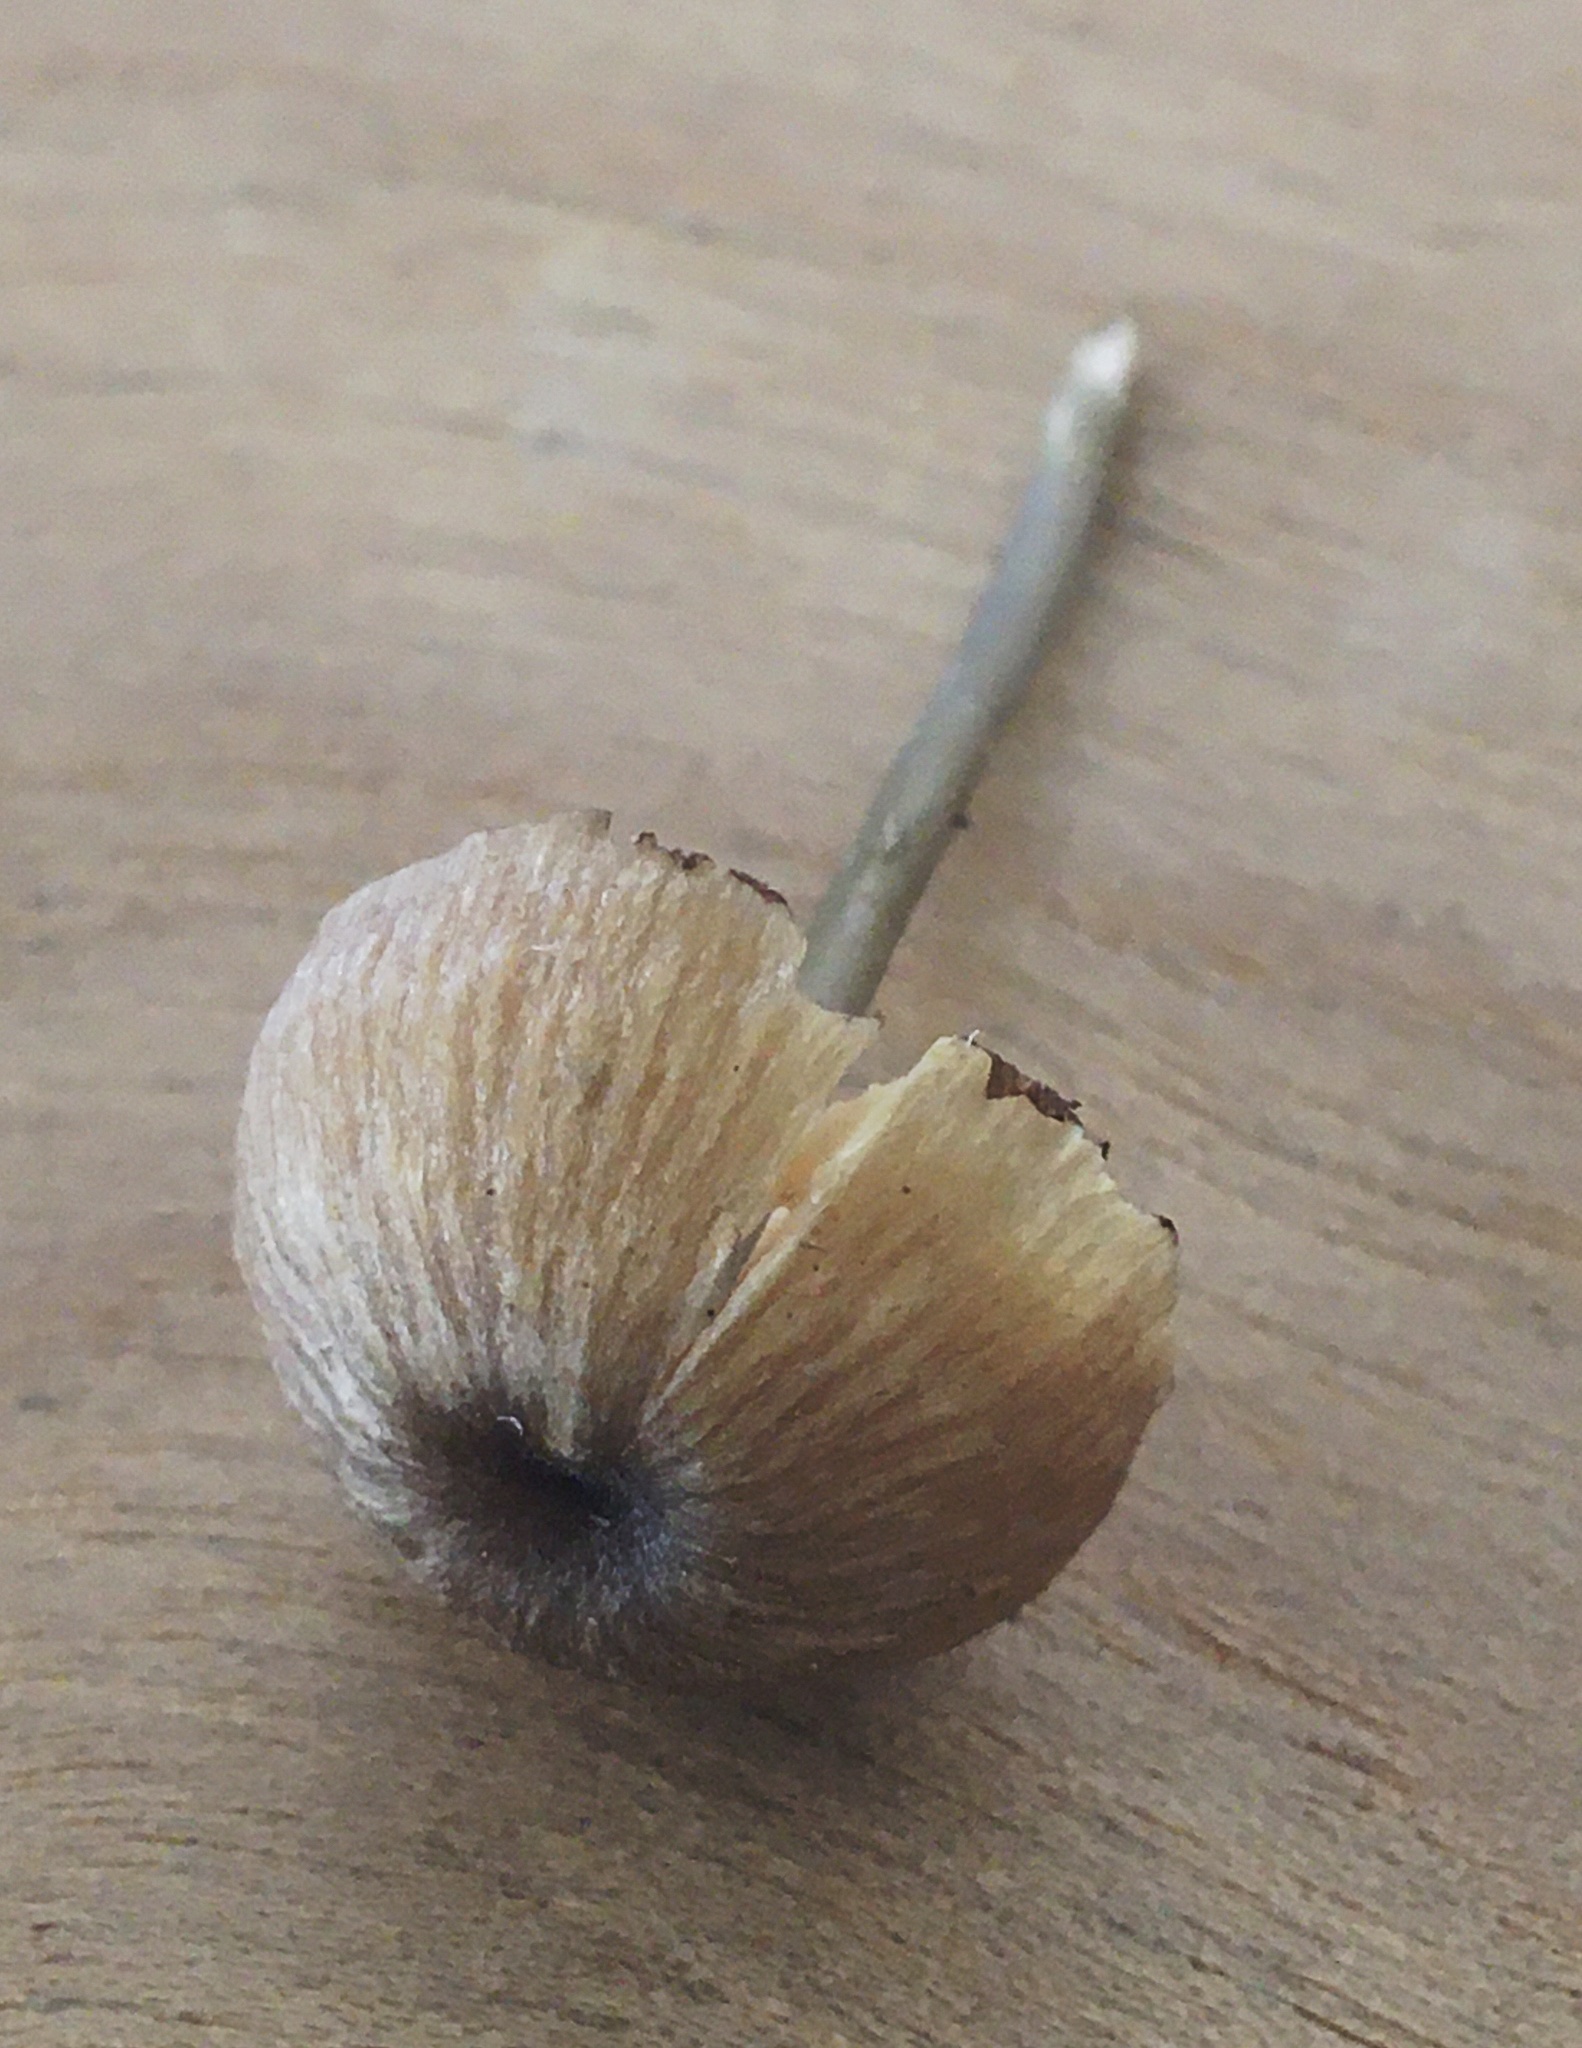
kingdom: Fungi
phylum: Basidiomycota
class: Agaricomycetes
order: Agaricales
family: Entolomataceae
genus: Entoloma
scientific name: Entoloma asprellum
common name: Roughened pinkgill
